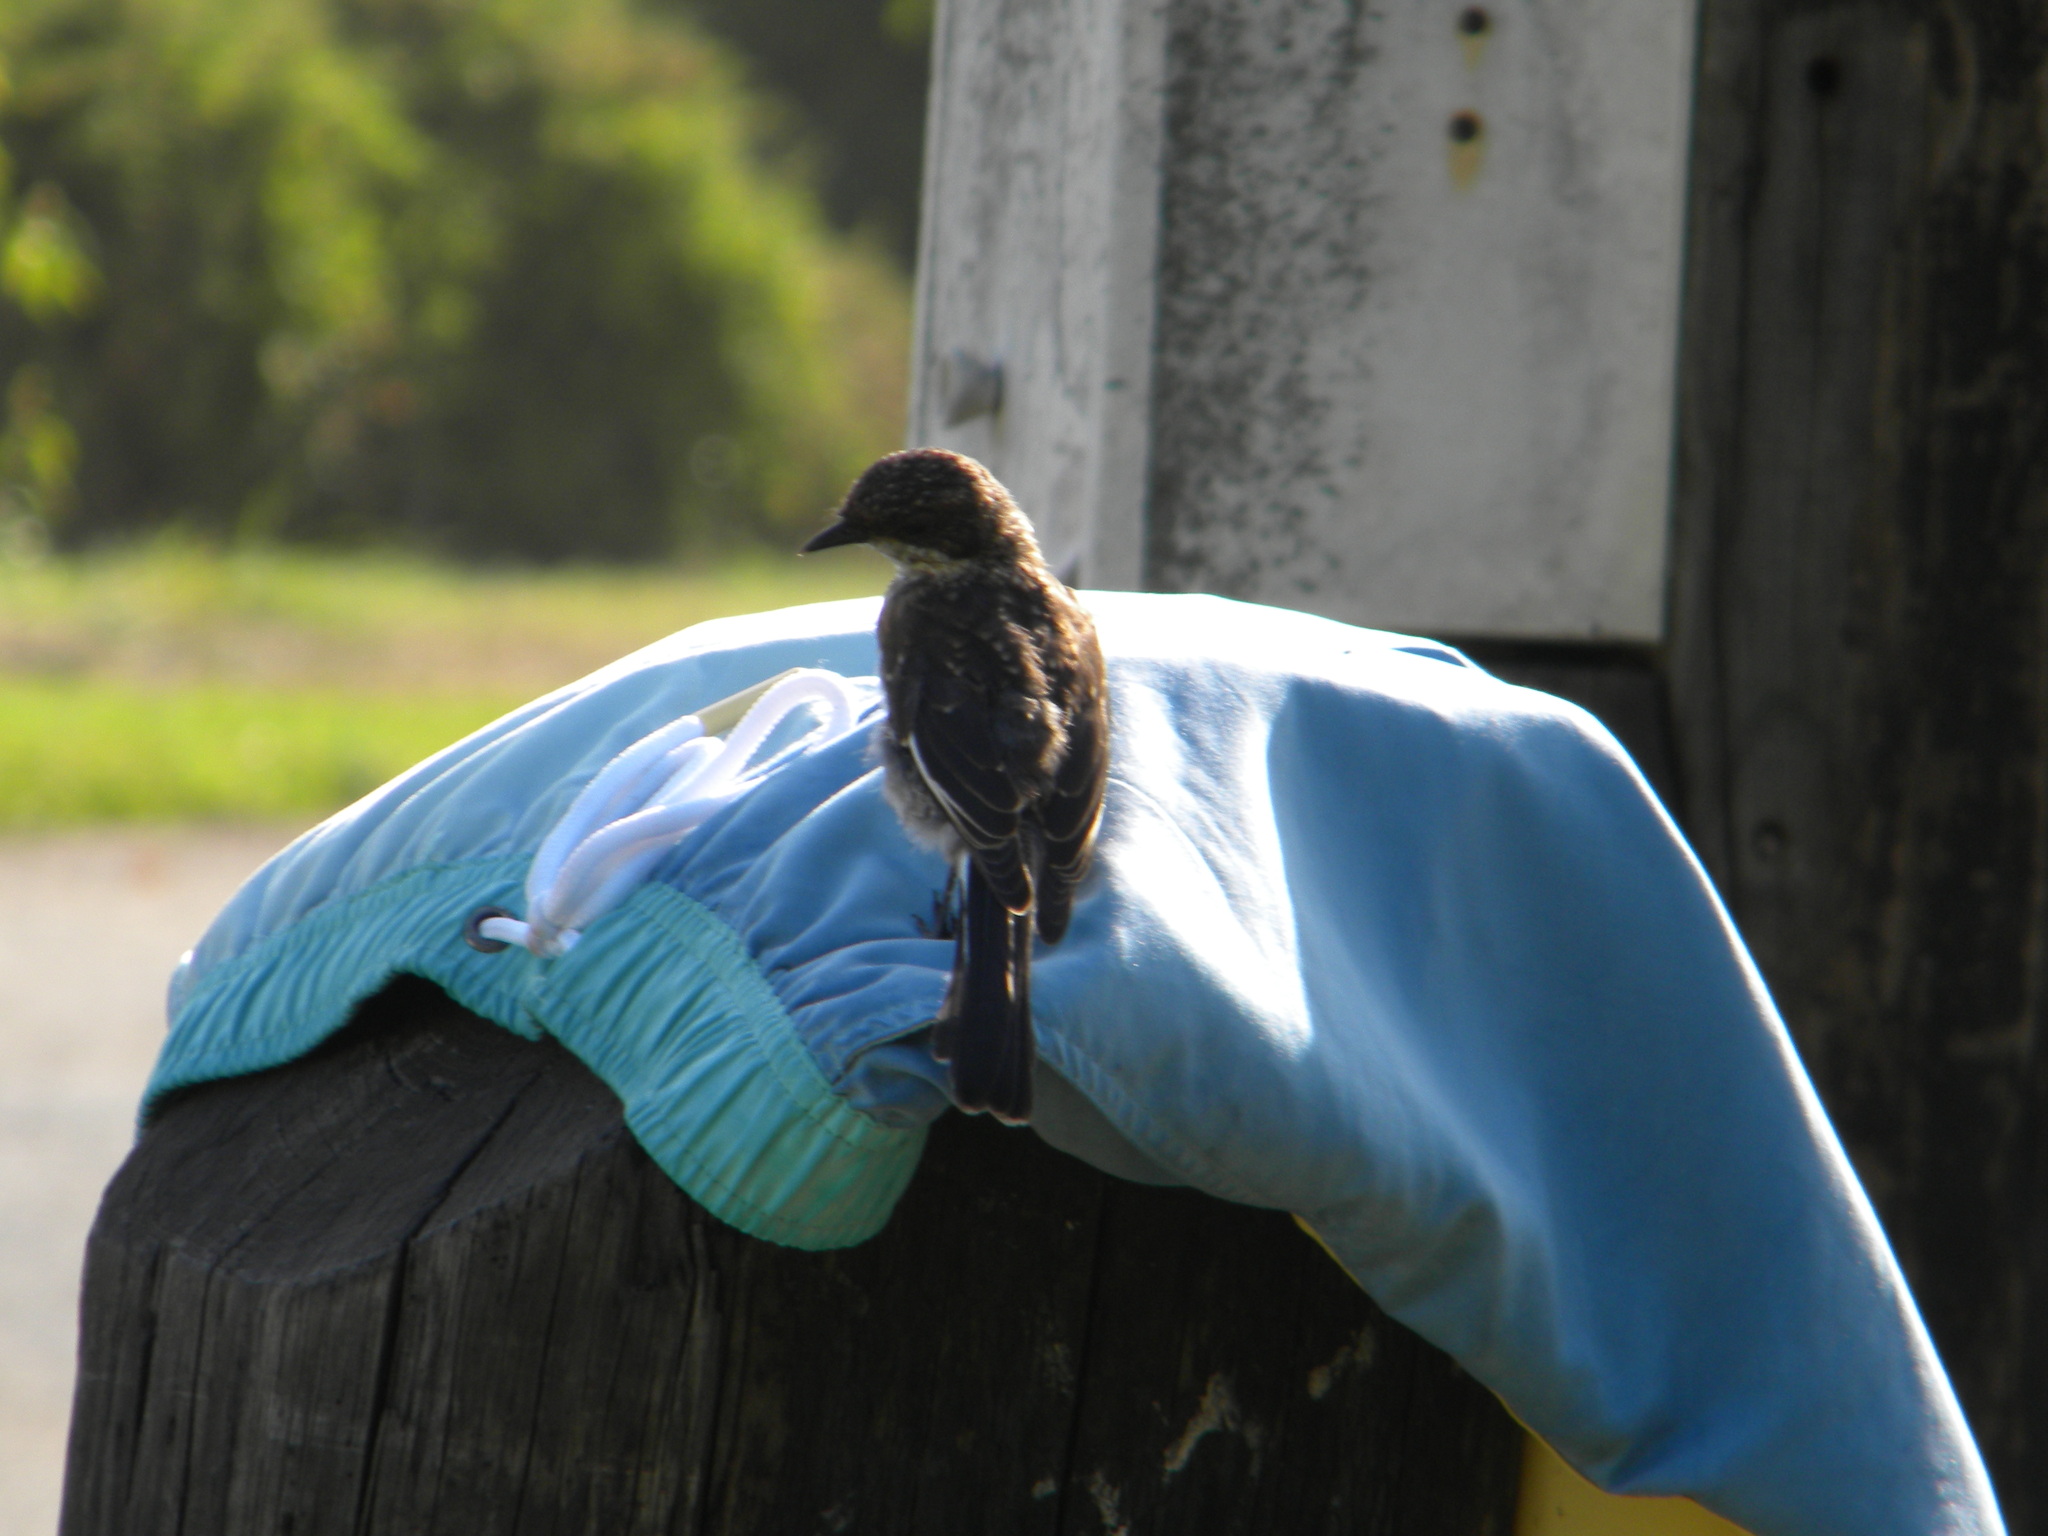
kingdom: Animalia
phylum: Chordata
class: Aves
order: Passeriformes
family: Muscicapidae
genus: Sigelus
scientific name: Sigelus silens
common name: Fiscal flycatcher
